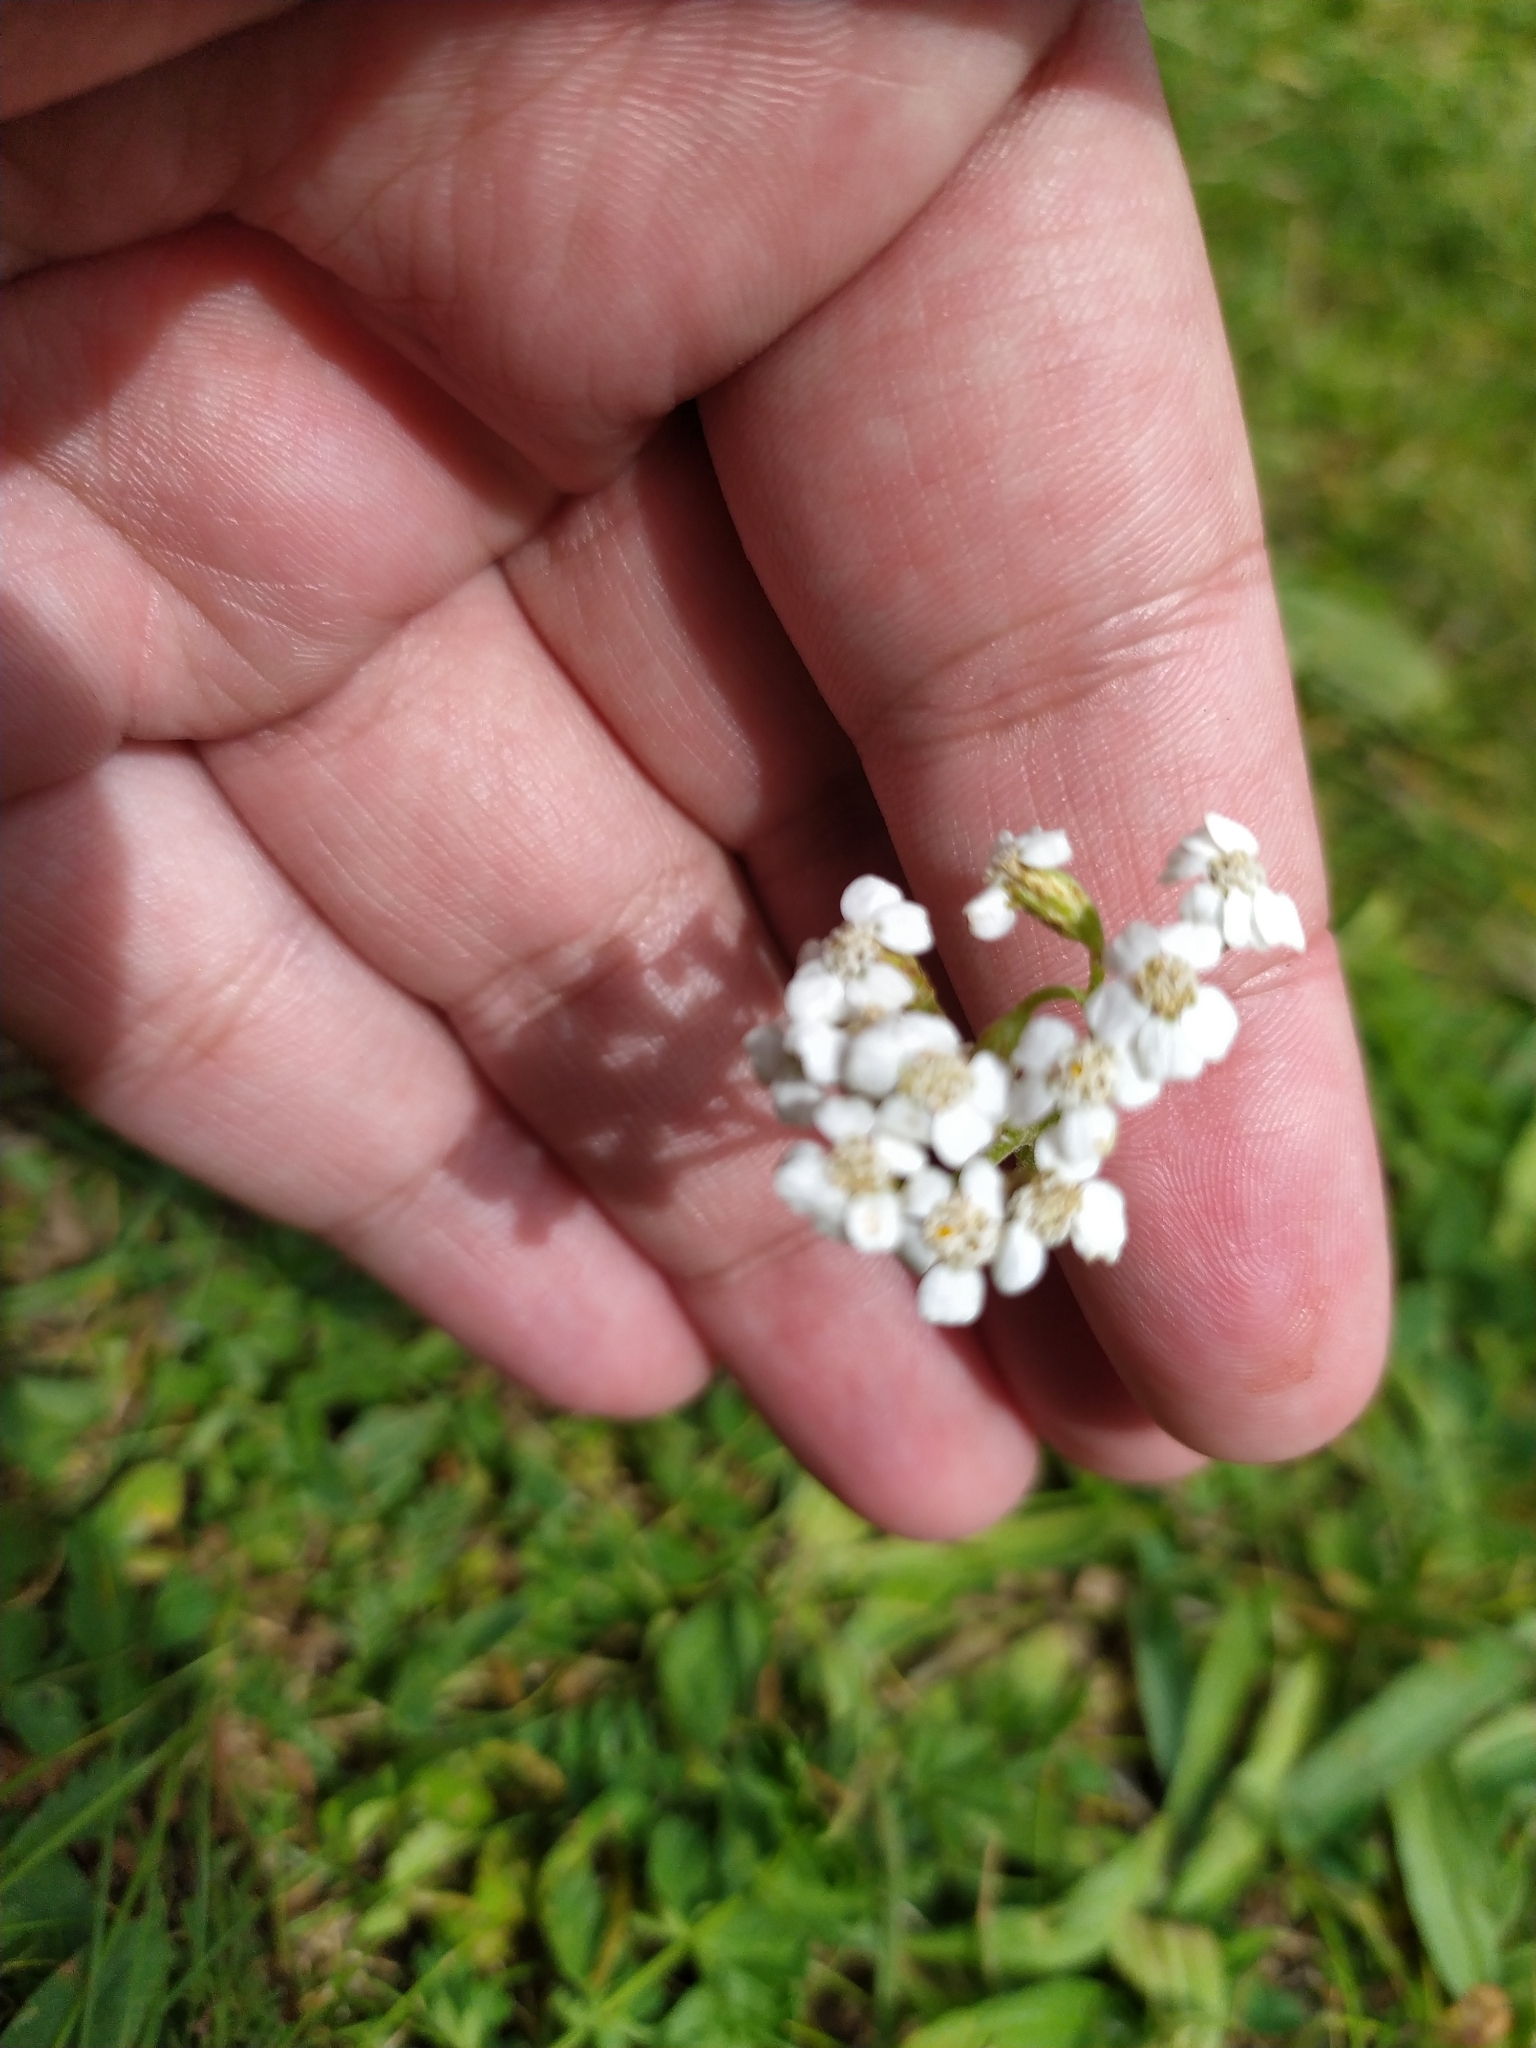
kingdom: Plantae
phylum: Tracheophyta
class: Magnoliopsida
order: Asterales
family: Asteraceae
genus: Achillea
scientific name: Achillea millefolium
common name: Yarrow
